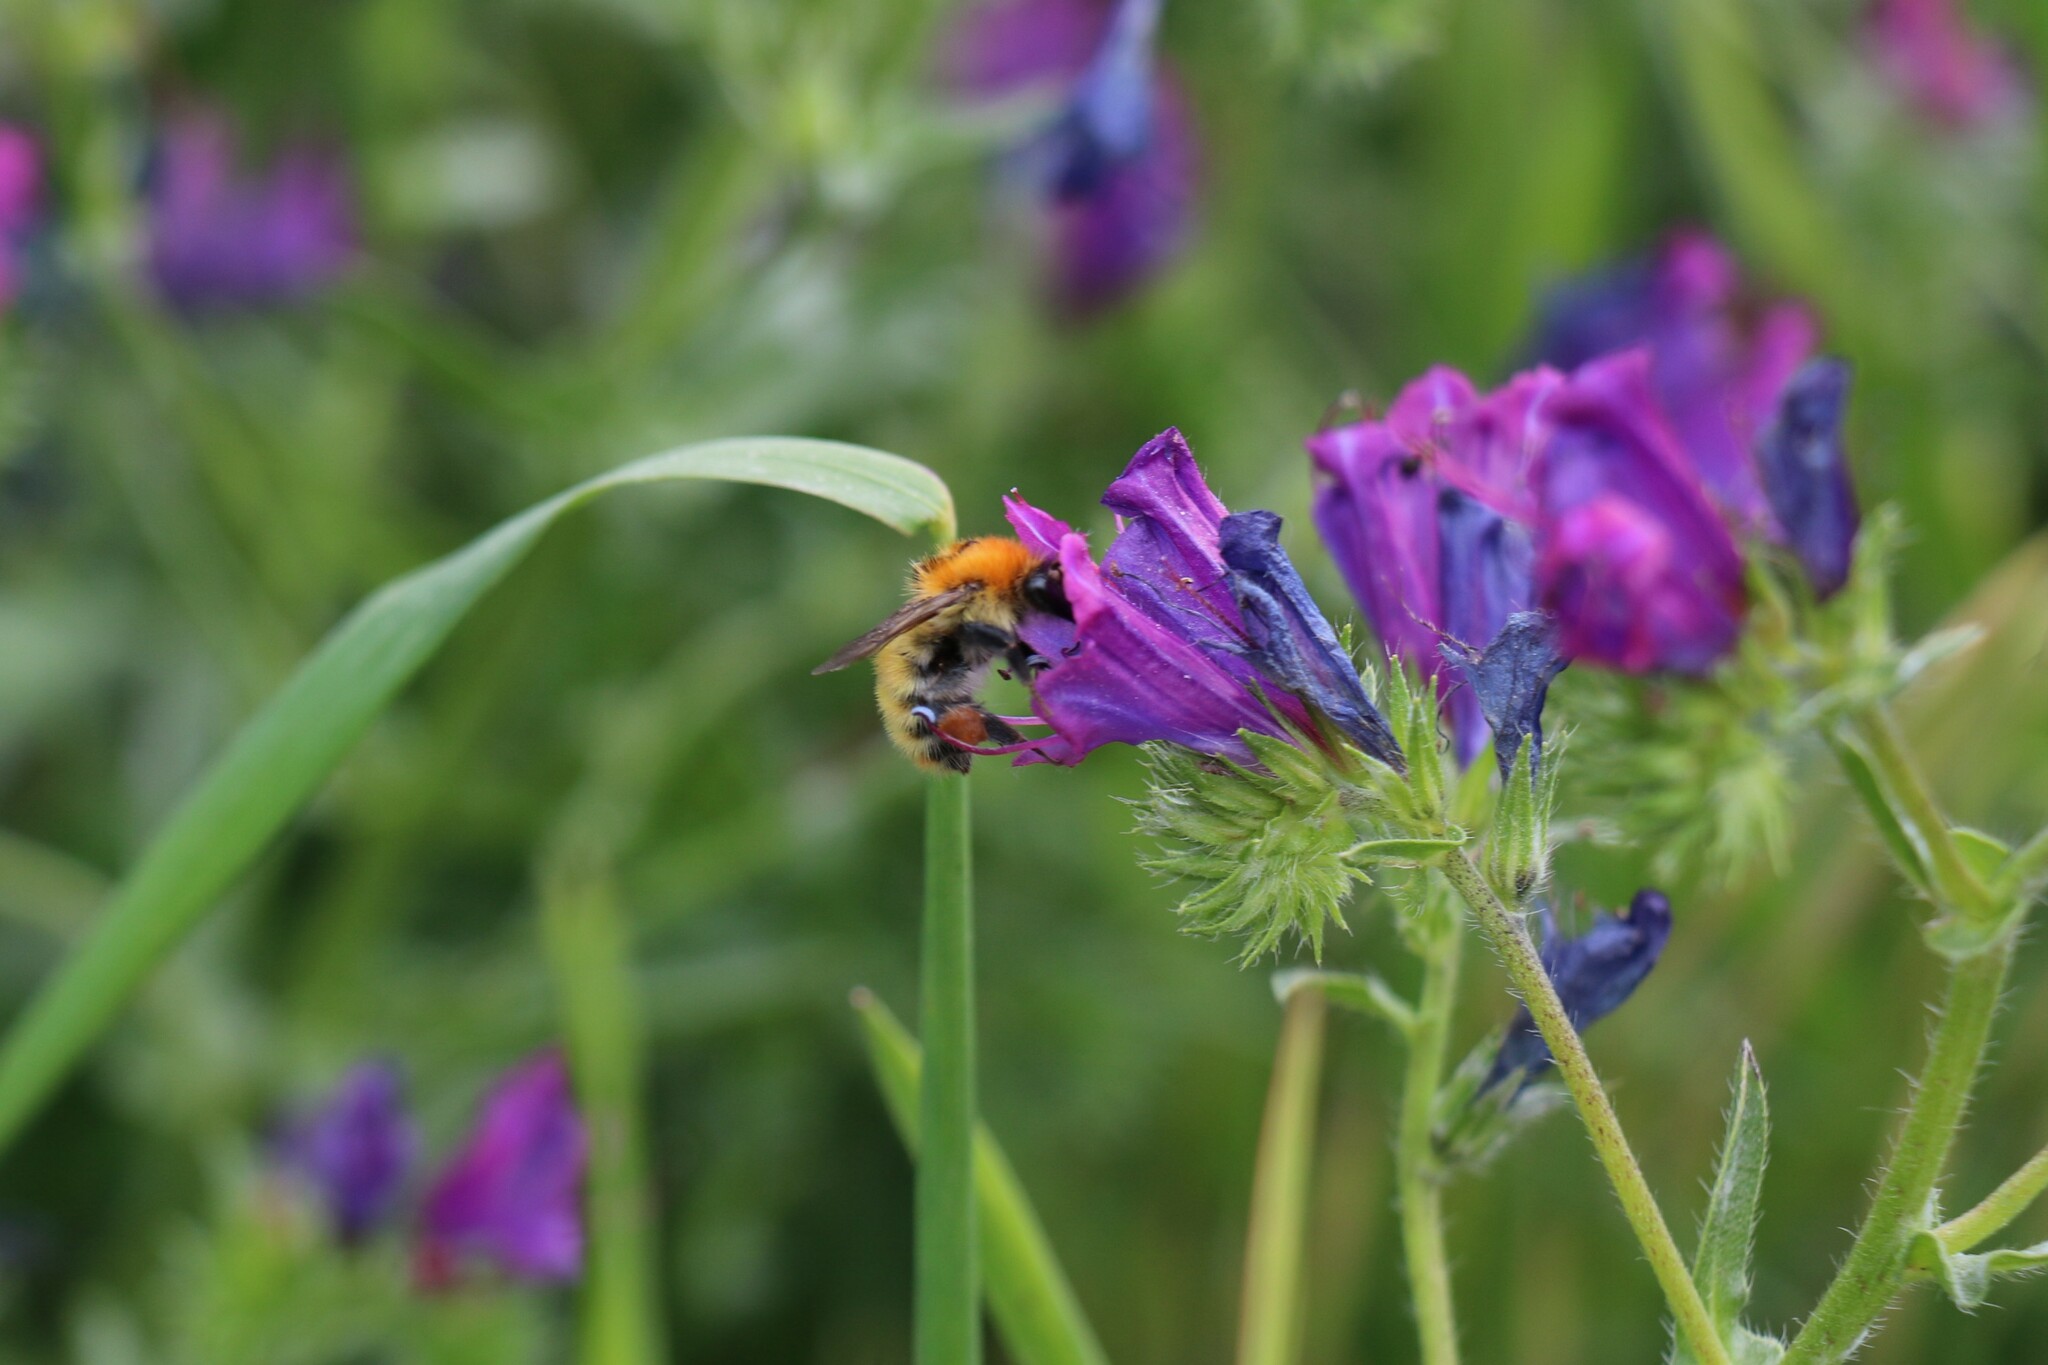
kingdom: Animalia
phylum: Arthropoda
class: Insecta
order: Hymenoptera
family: Apidae
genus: Bombus
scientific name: Bombus pascuorum
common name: Common carder bee
